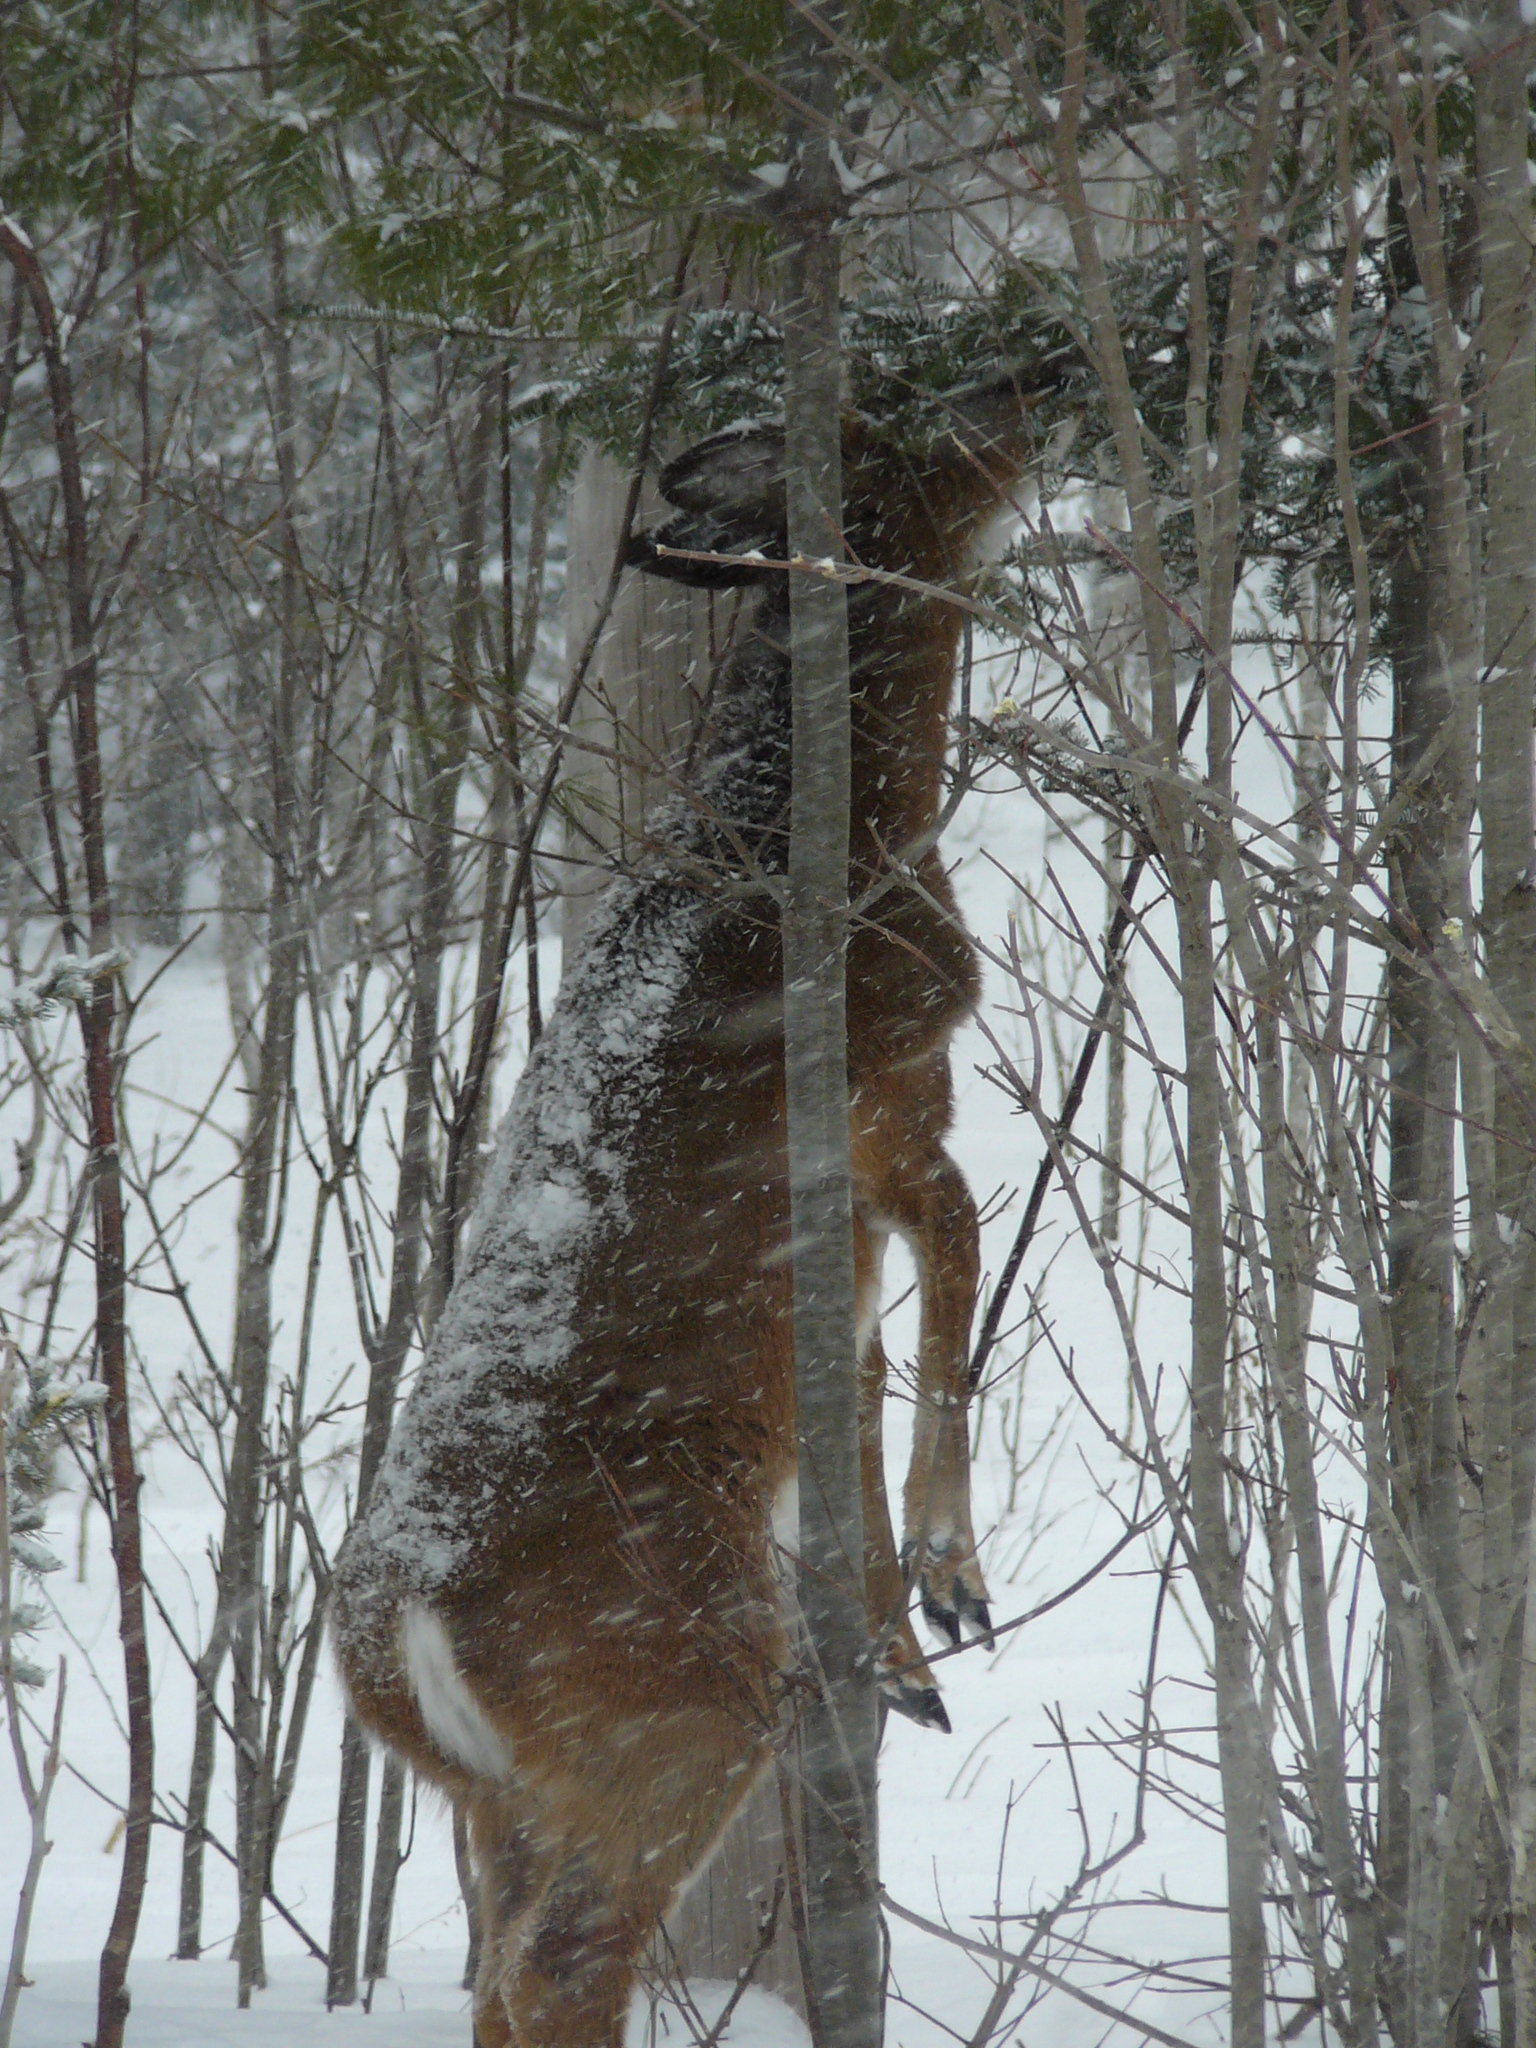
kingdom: Animalia
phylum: Chordata
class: Mammalia
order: Artiodactyla
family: Cervidae
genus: Odocoileus
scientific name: Odocoileus virginianus
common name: White-tailed deer
